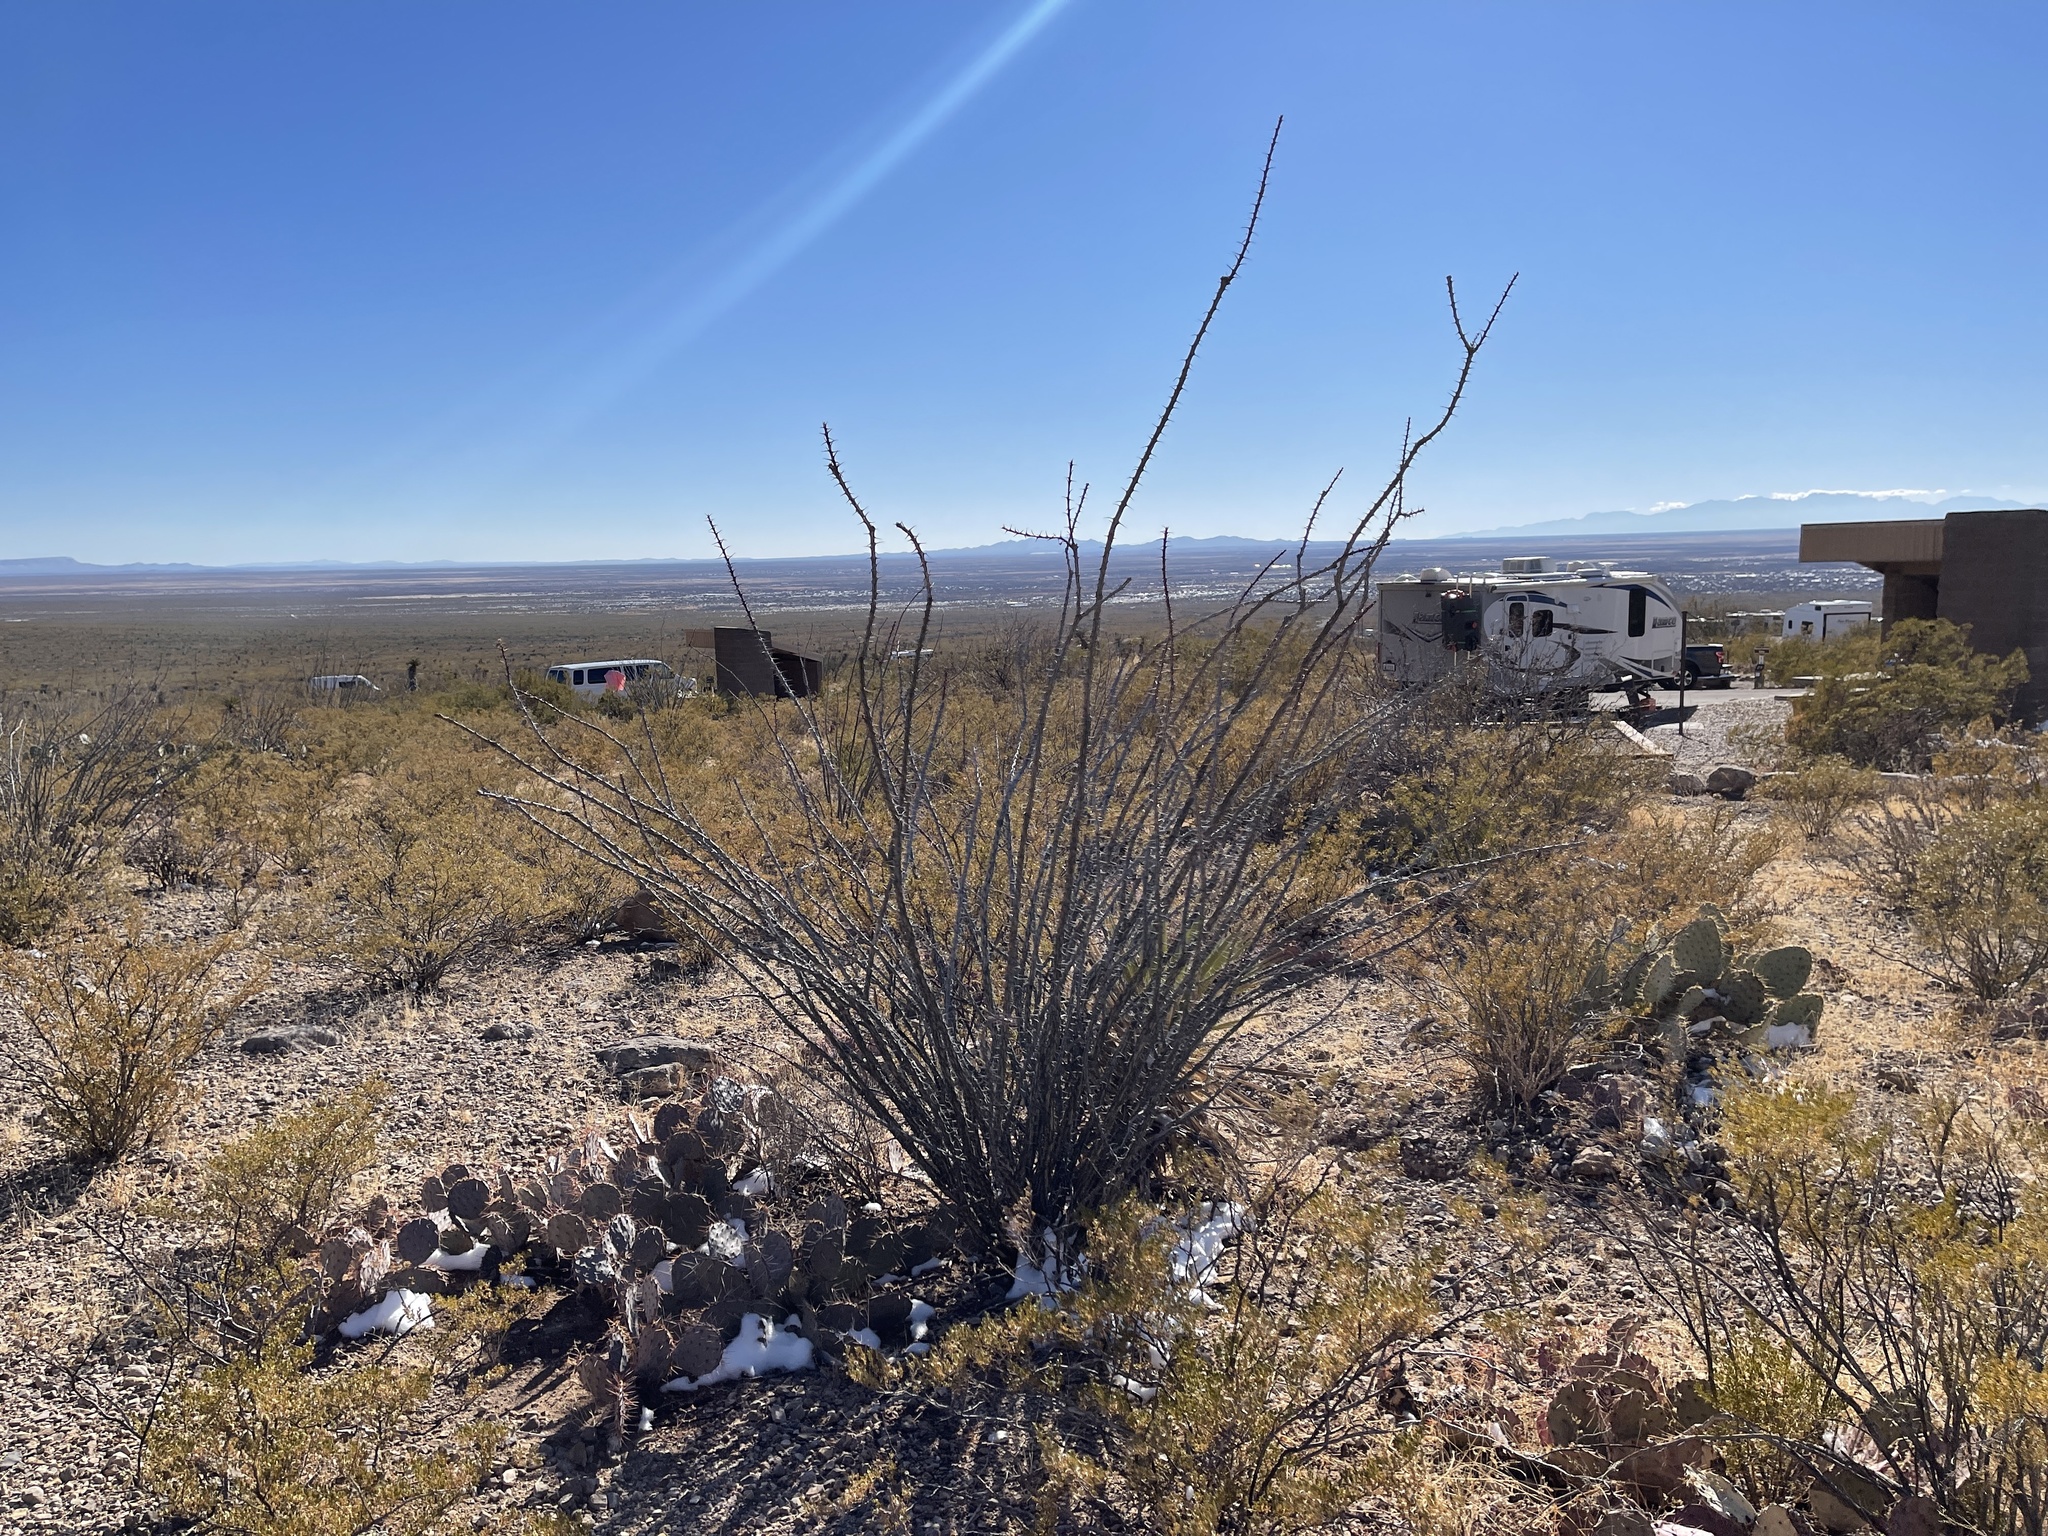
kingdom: Plantae
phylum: Tracheophyta
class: Magnoliopsida
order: Ericales
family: Fouquieriaceae
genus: Fouquieria
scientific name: Fouquieria splendens
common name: Vine-cactus
